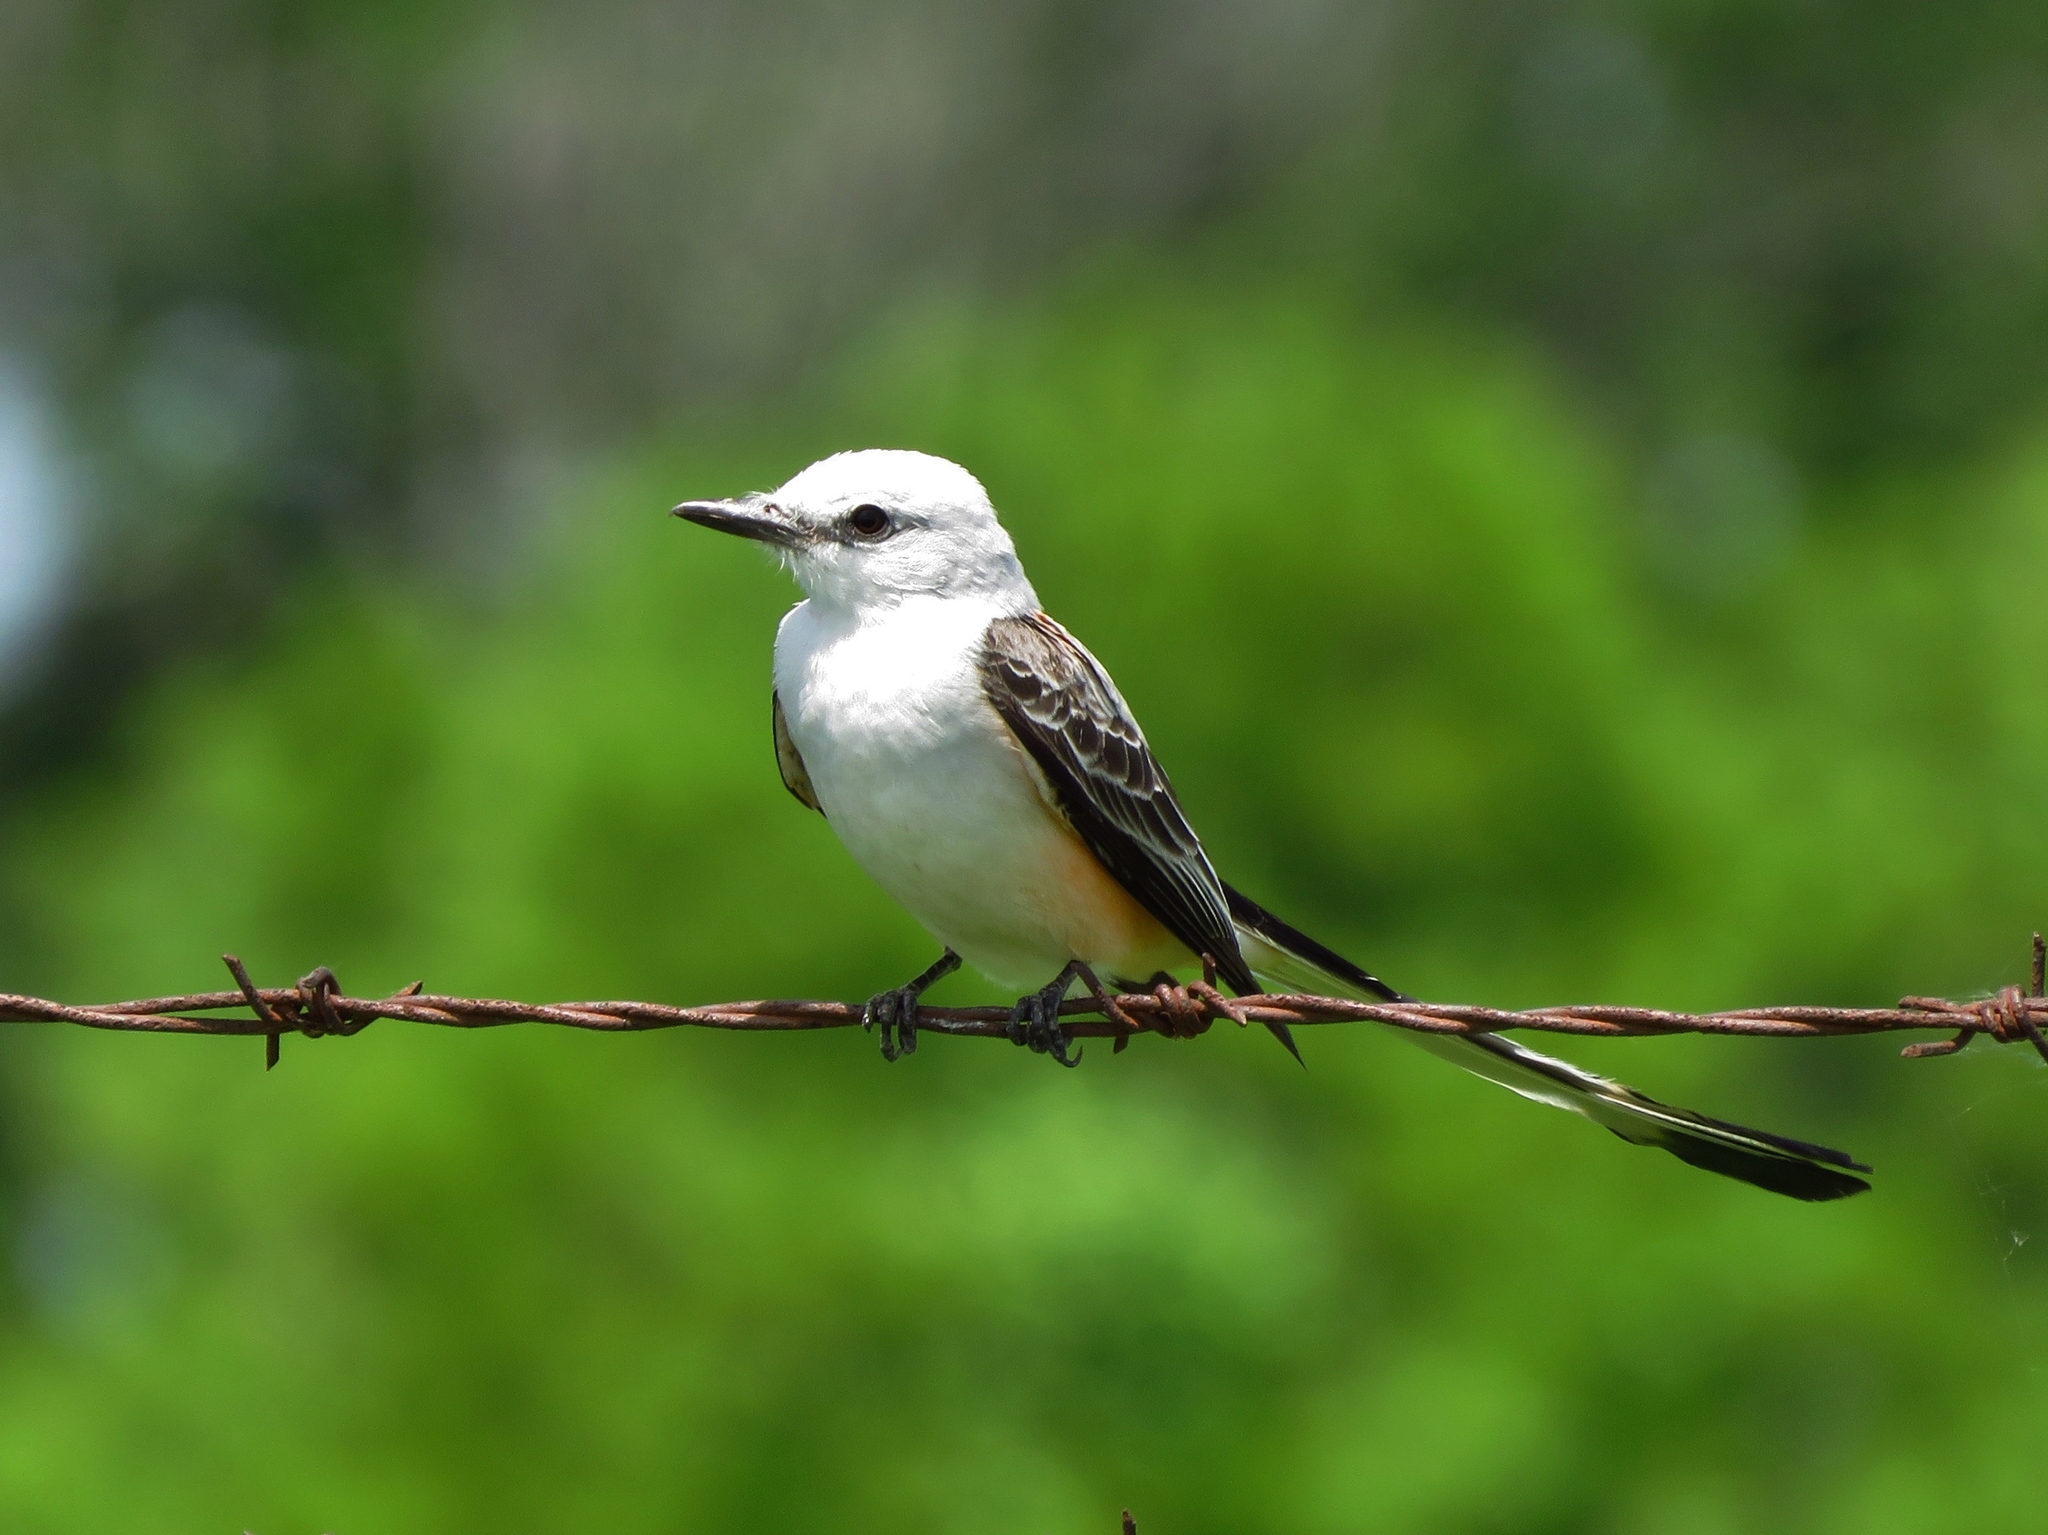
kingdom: Animalia
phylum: Chordata
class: Aves
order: Passeriformes
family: Tyrannidae
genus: Tyrannus
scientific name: Tyrannus forficatus
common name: Scissor-tailed flycatcher
